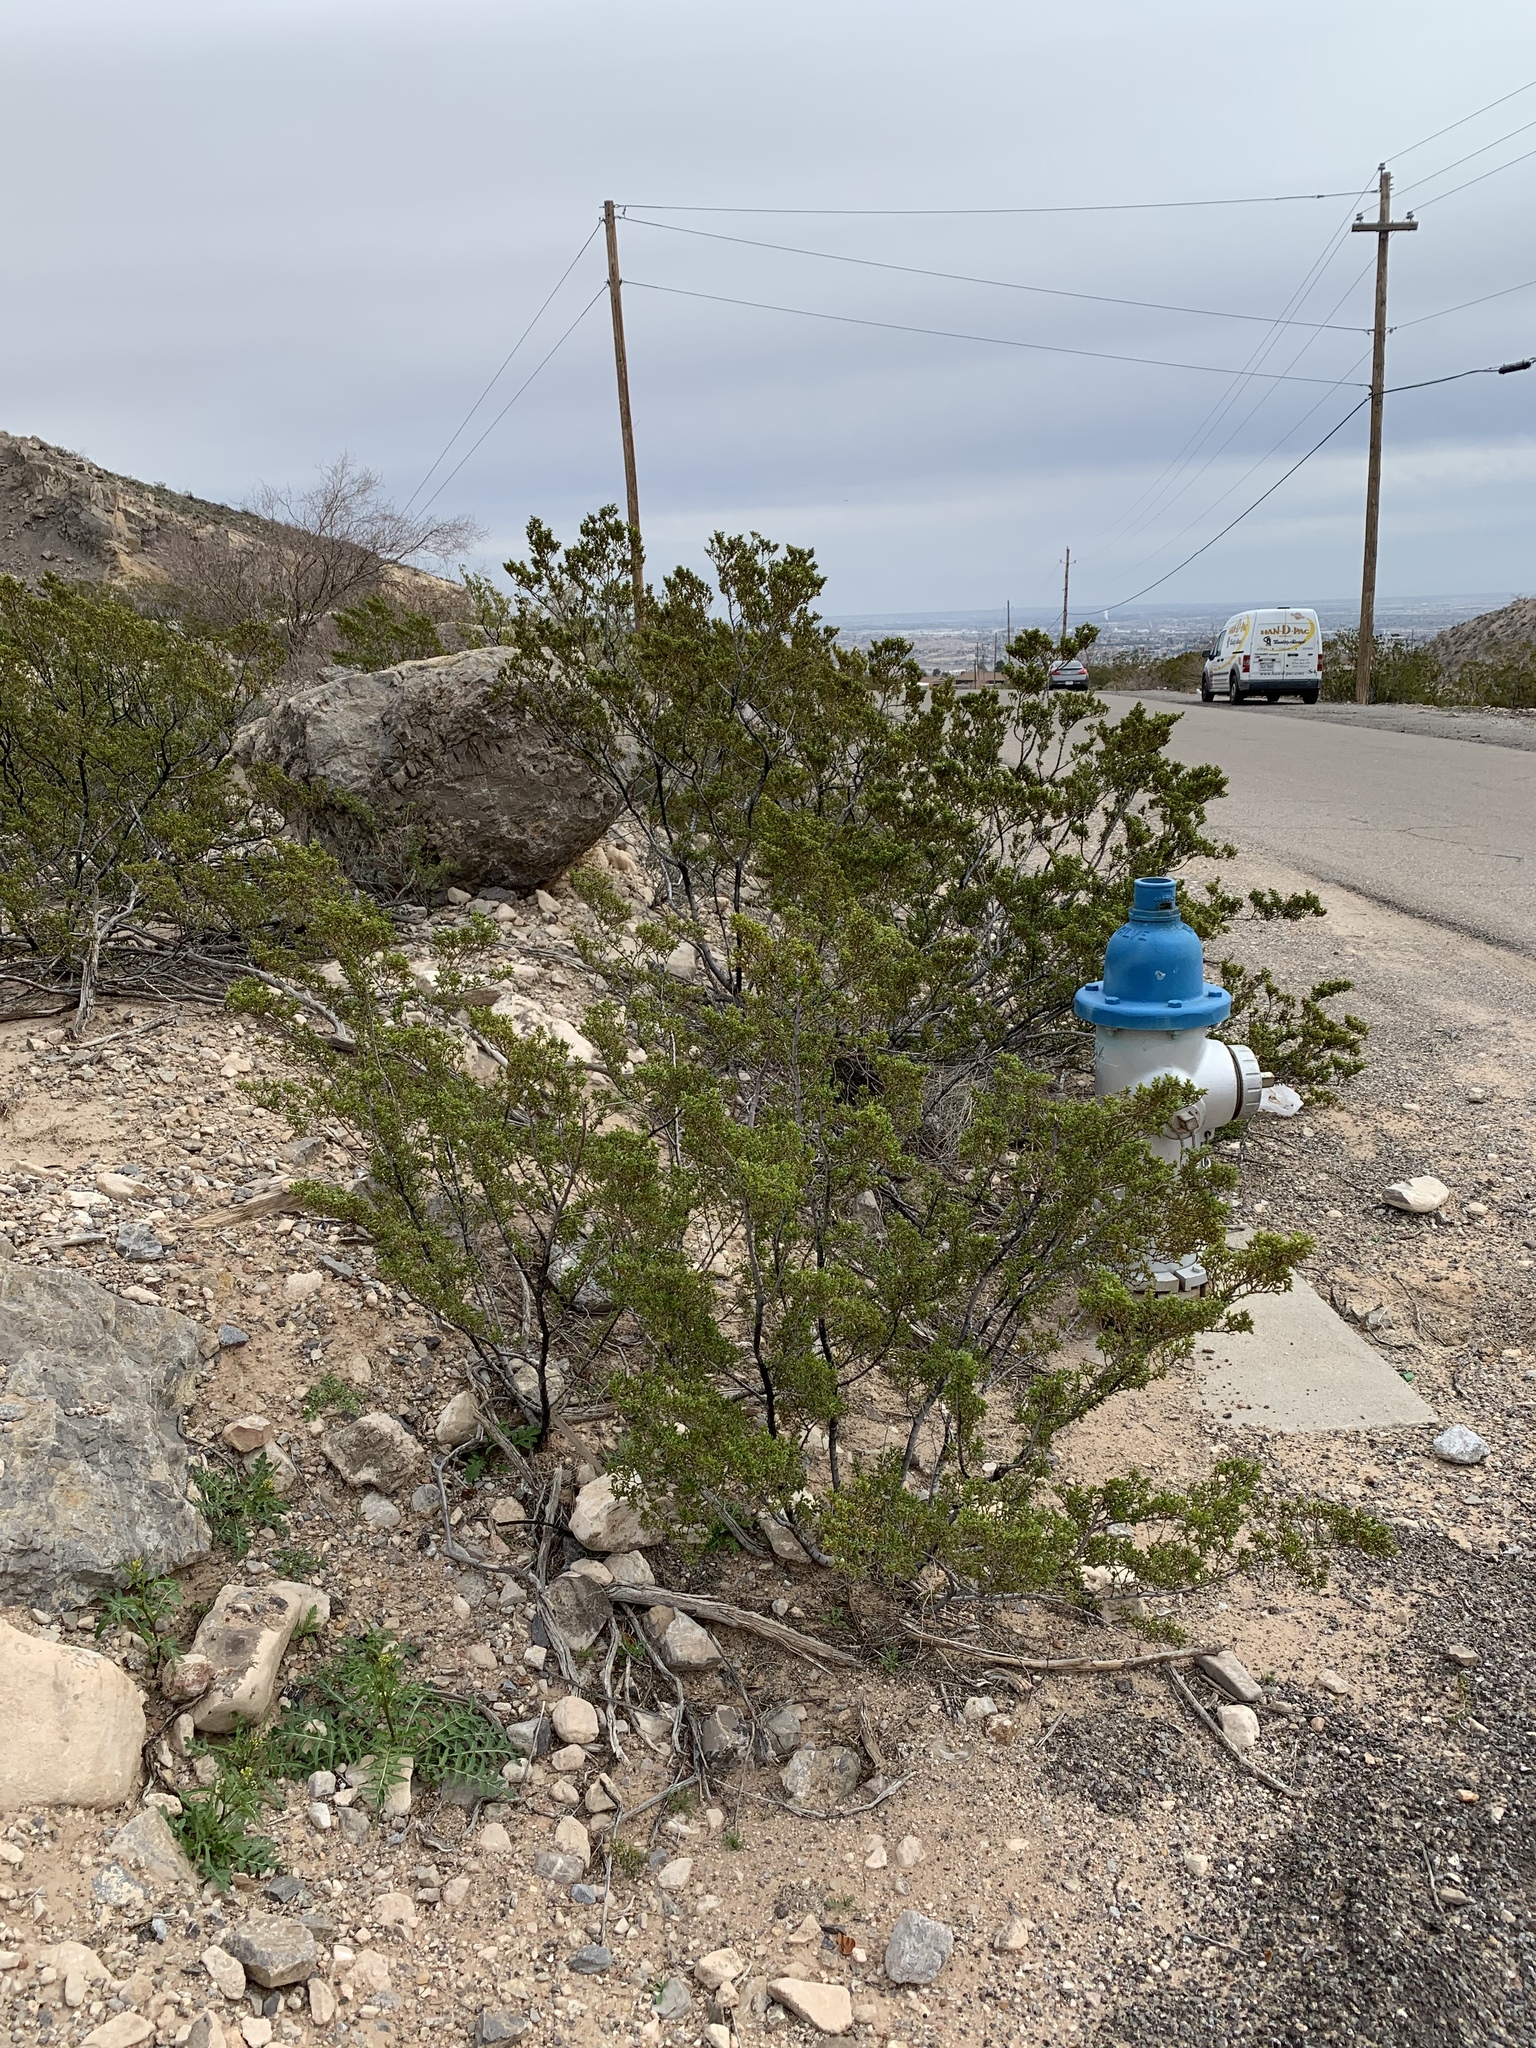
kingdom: Plantae
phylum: Tracheophyta
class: Magnoliopsida
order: Zygophyllales
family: Zygophyllaceae
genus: Larrea
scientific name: Larrea tridentata
